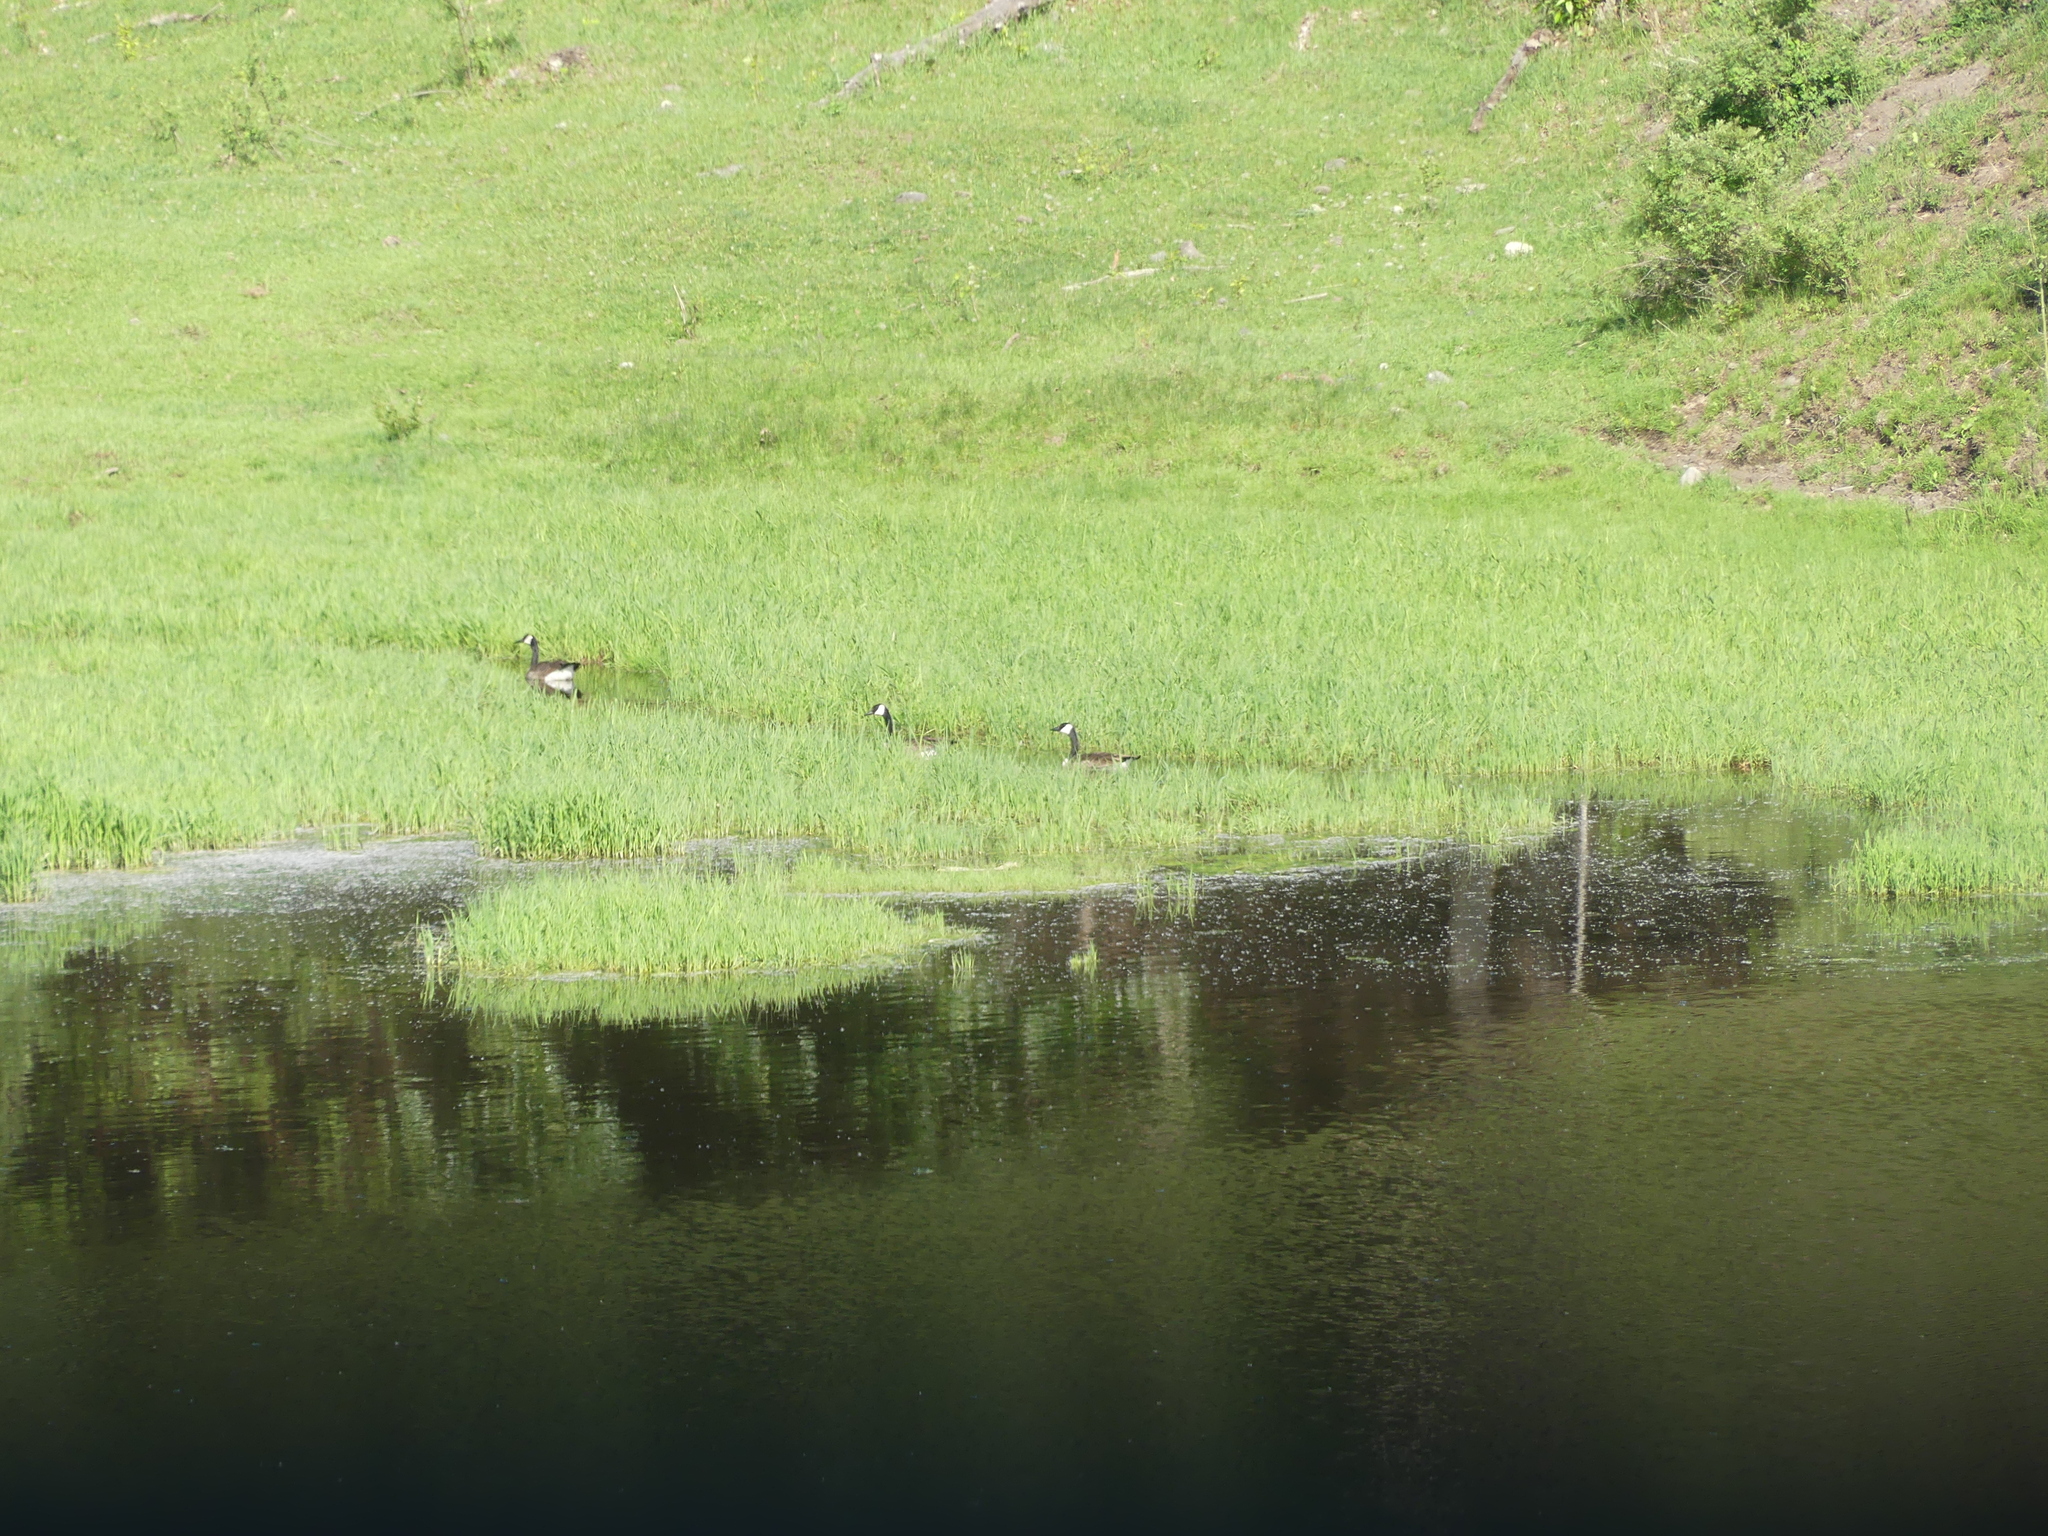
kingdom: Animalia
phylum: Chordata
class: Aves
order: Anseriformes
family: Anatidae
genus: Branta
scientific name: Branta canadensis
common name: Canada goose
